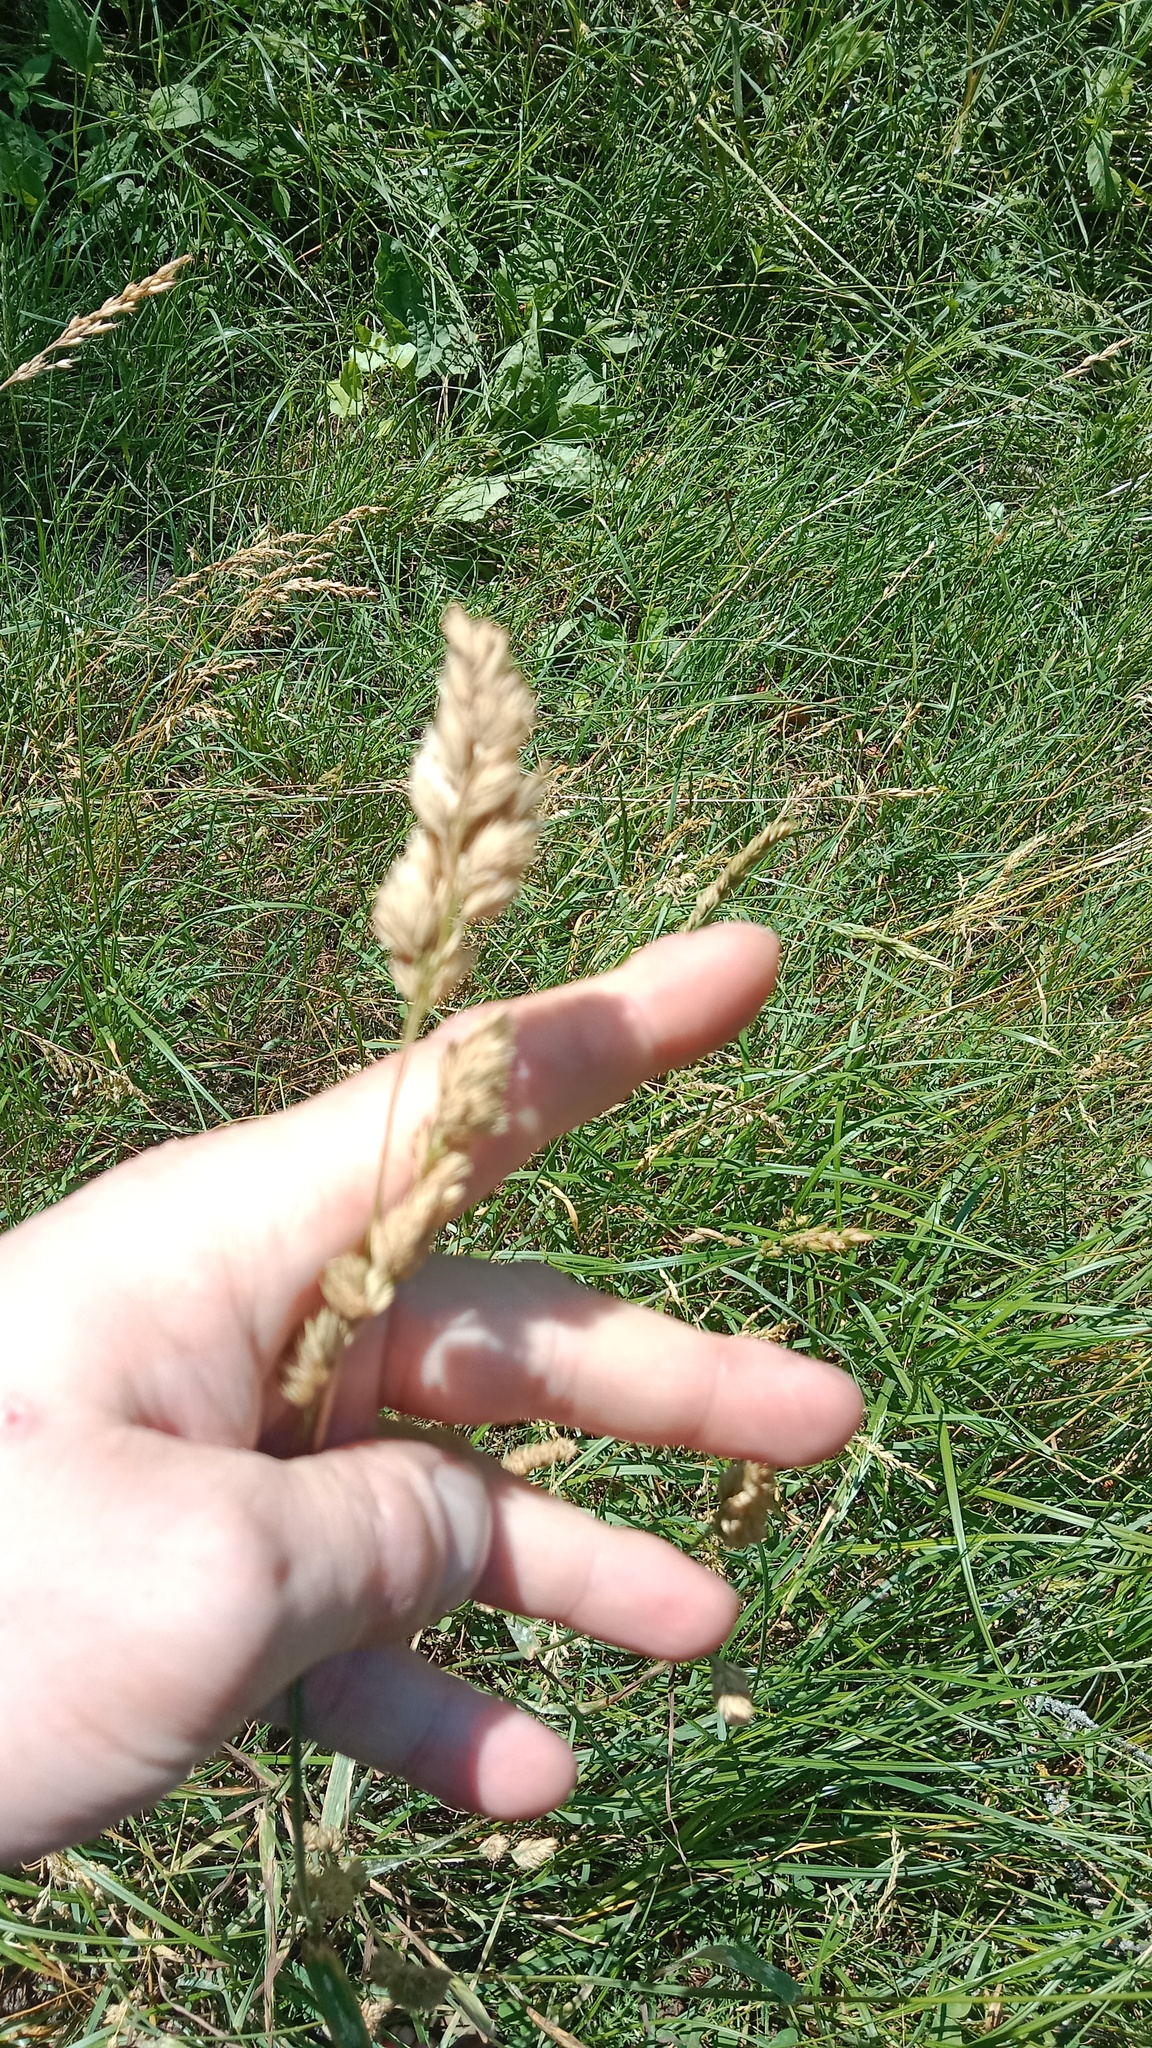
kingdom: Plantae
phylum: Tracheophyta
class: Liliopsida
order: Poales
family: Poaceae
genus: Dactylis
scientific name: Dactylis glomerata
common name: Orchardgrass
